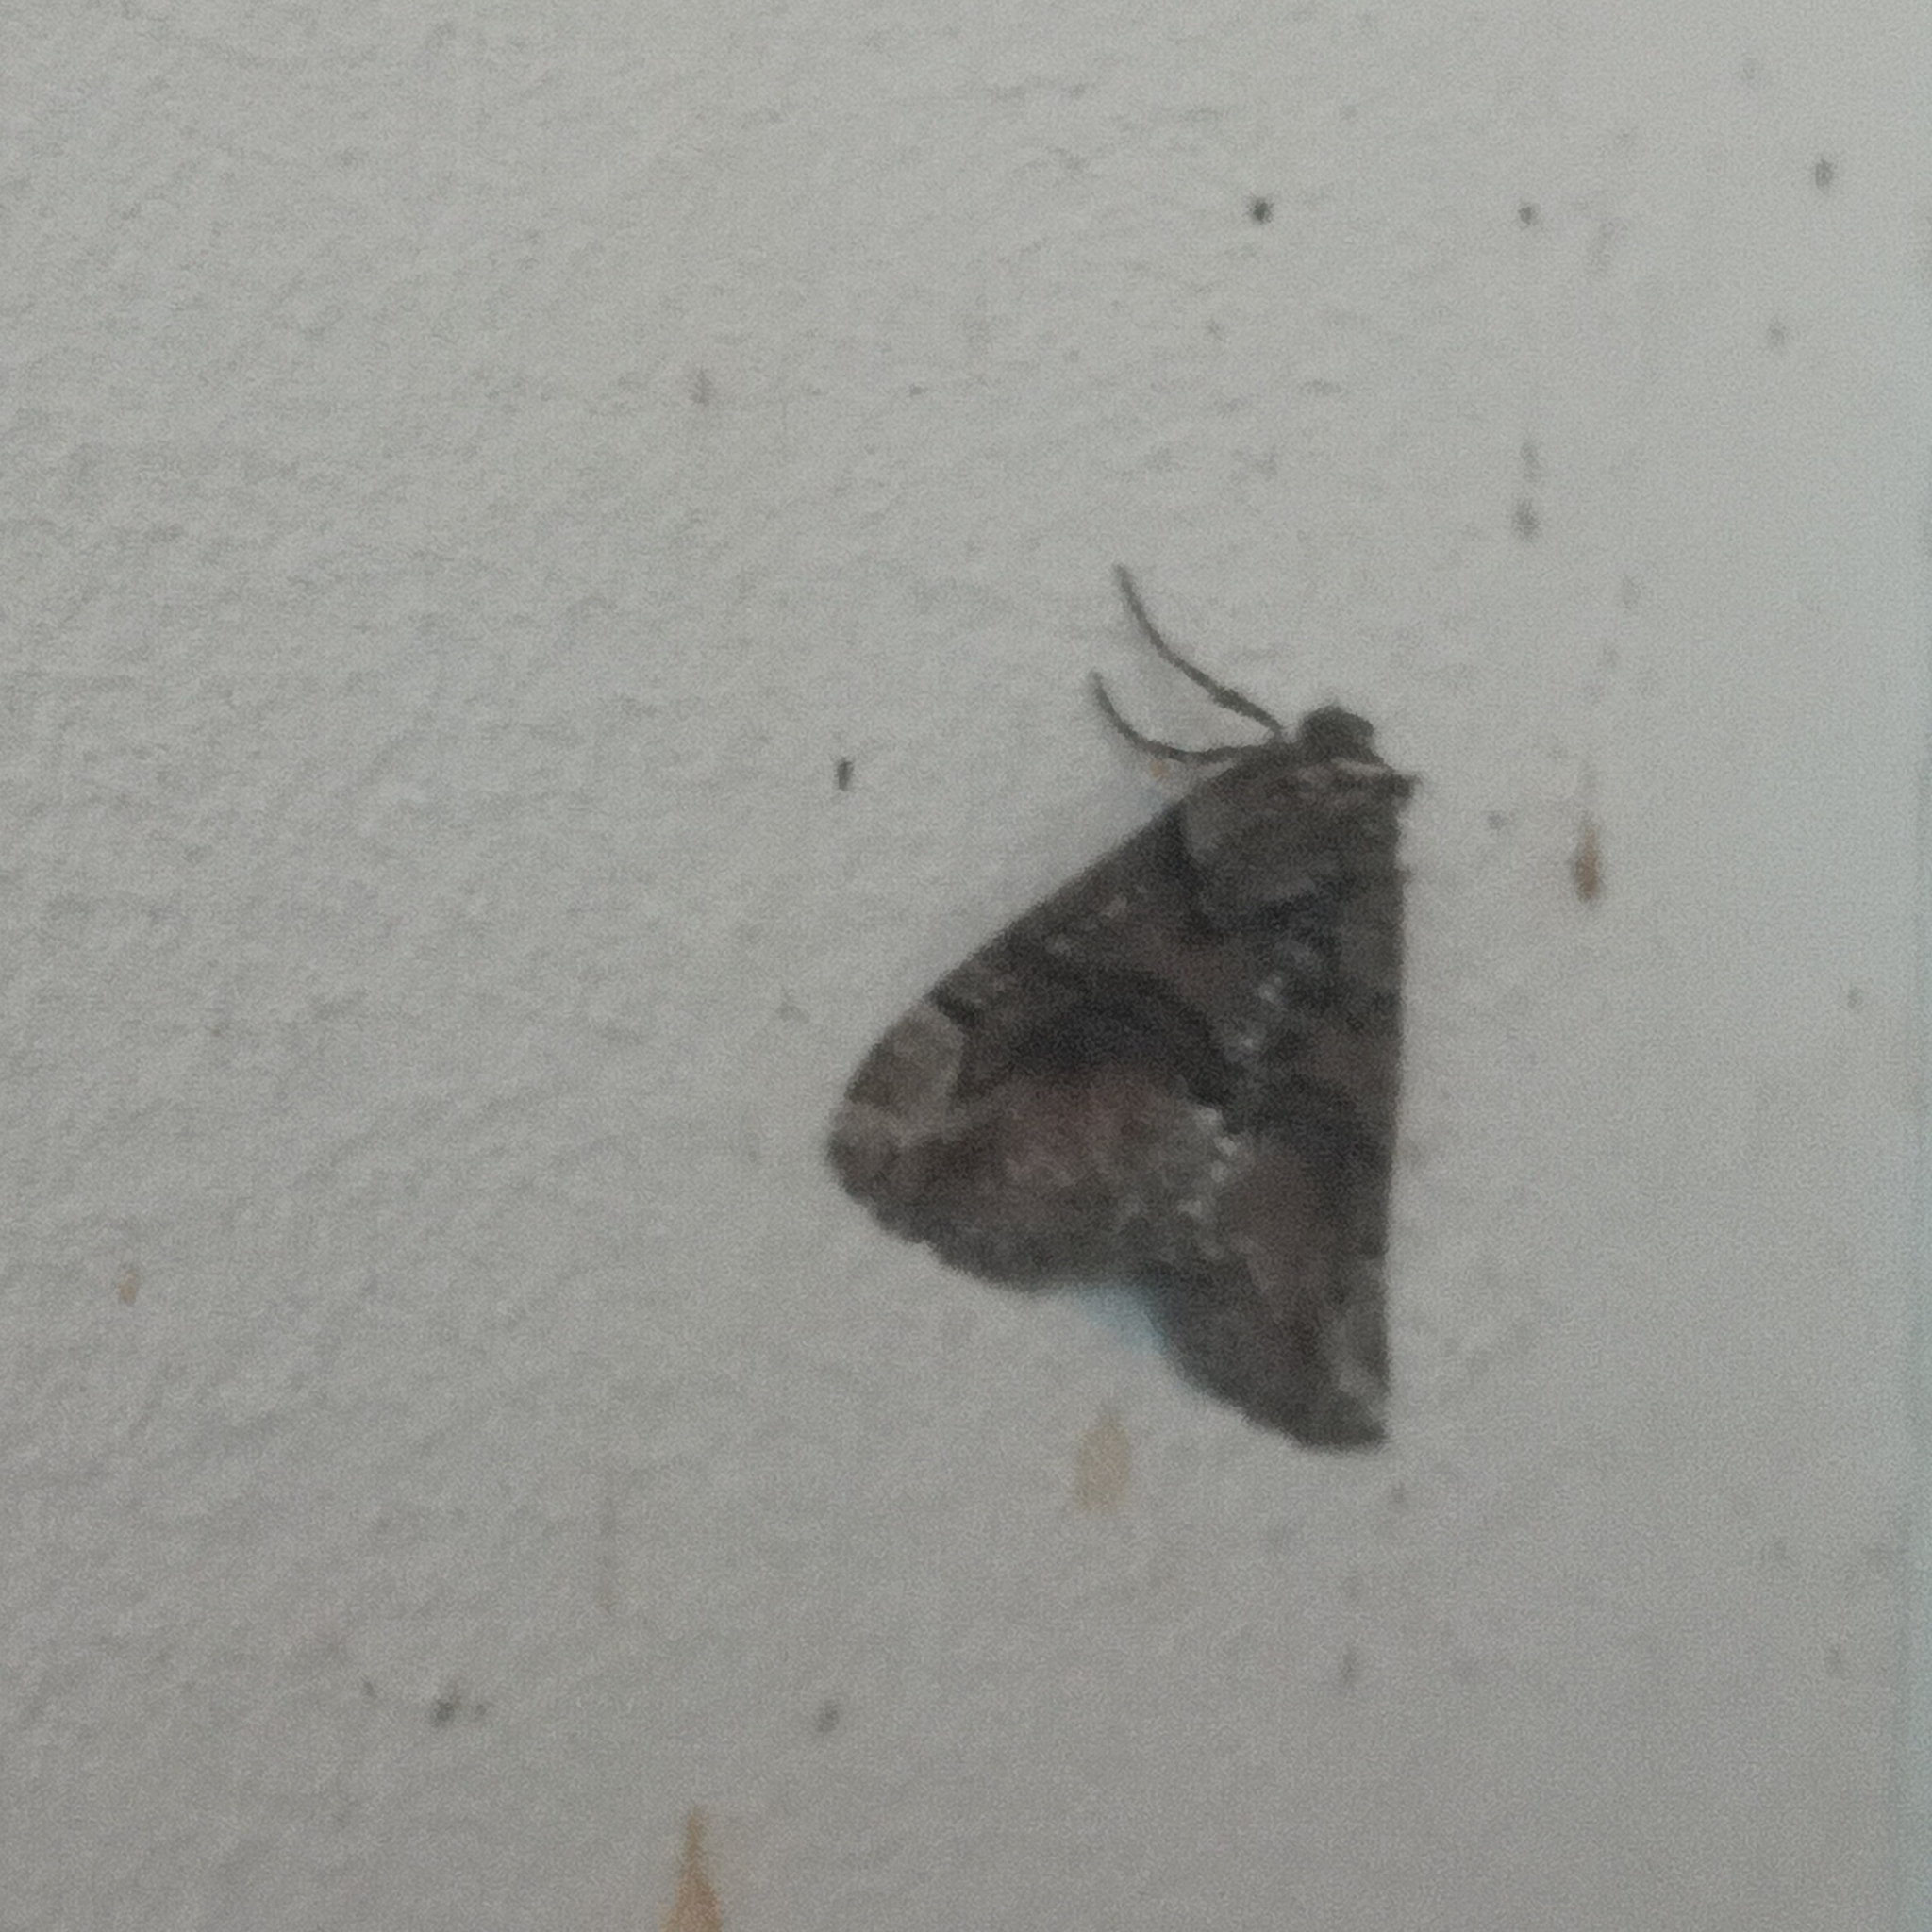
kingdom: Animalia
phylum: Arthropoda
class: Insecta
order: Lepidoptera
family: Geometridae
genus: Asovia
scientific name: Asovia maeoticaria
